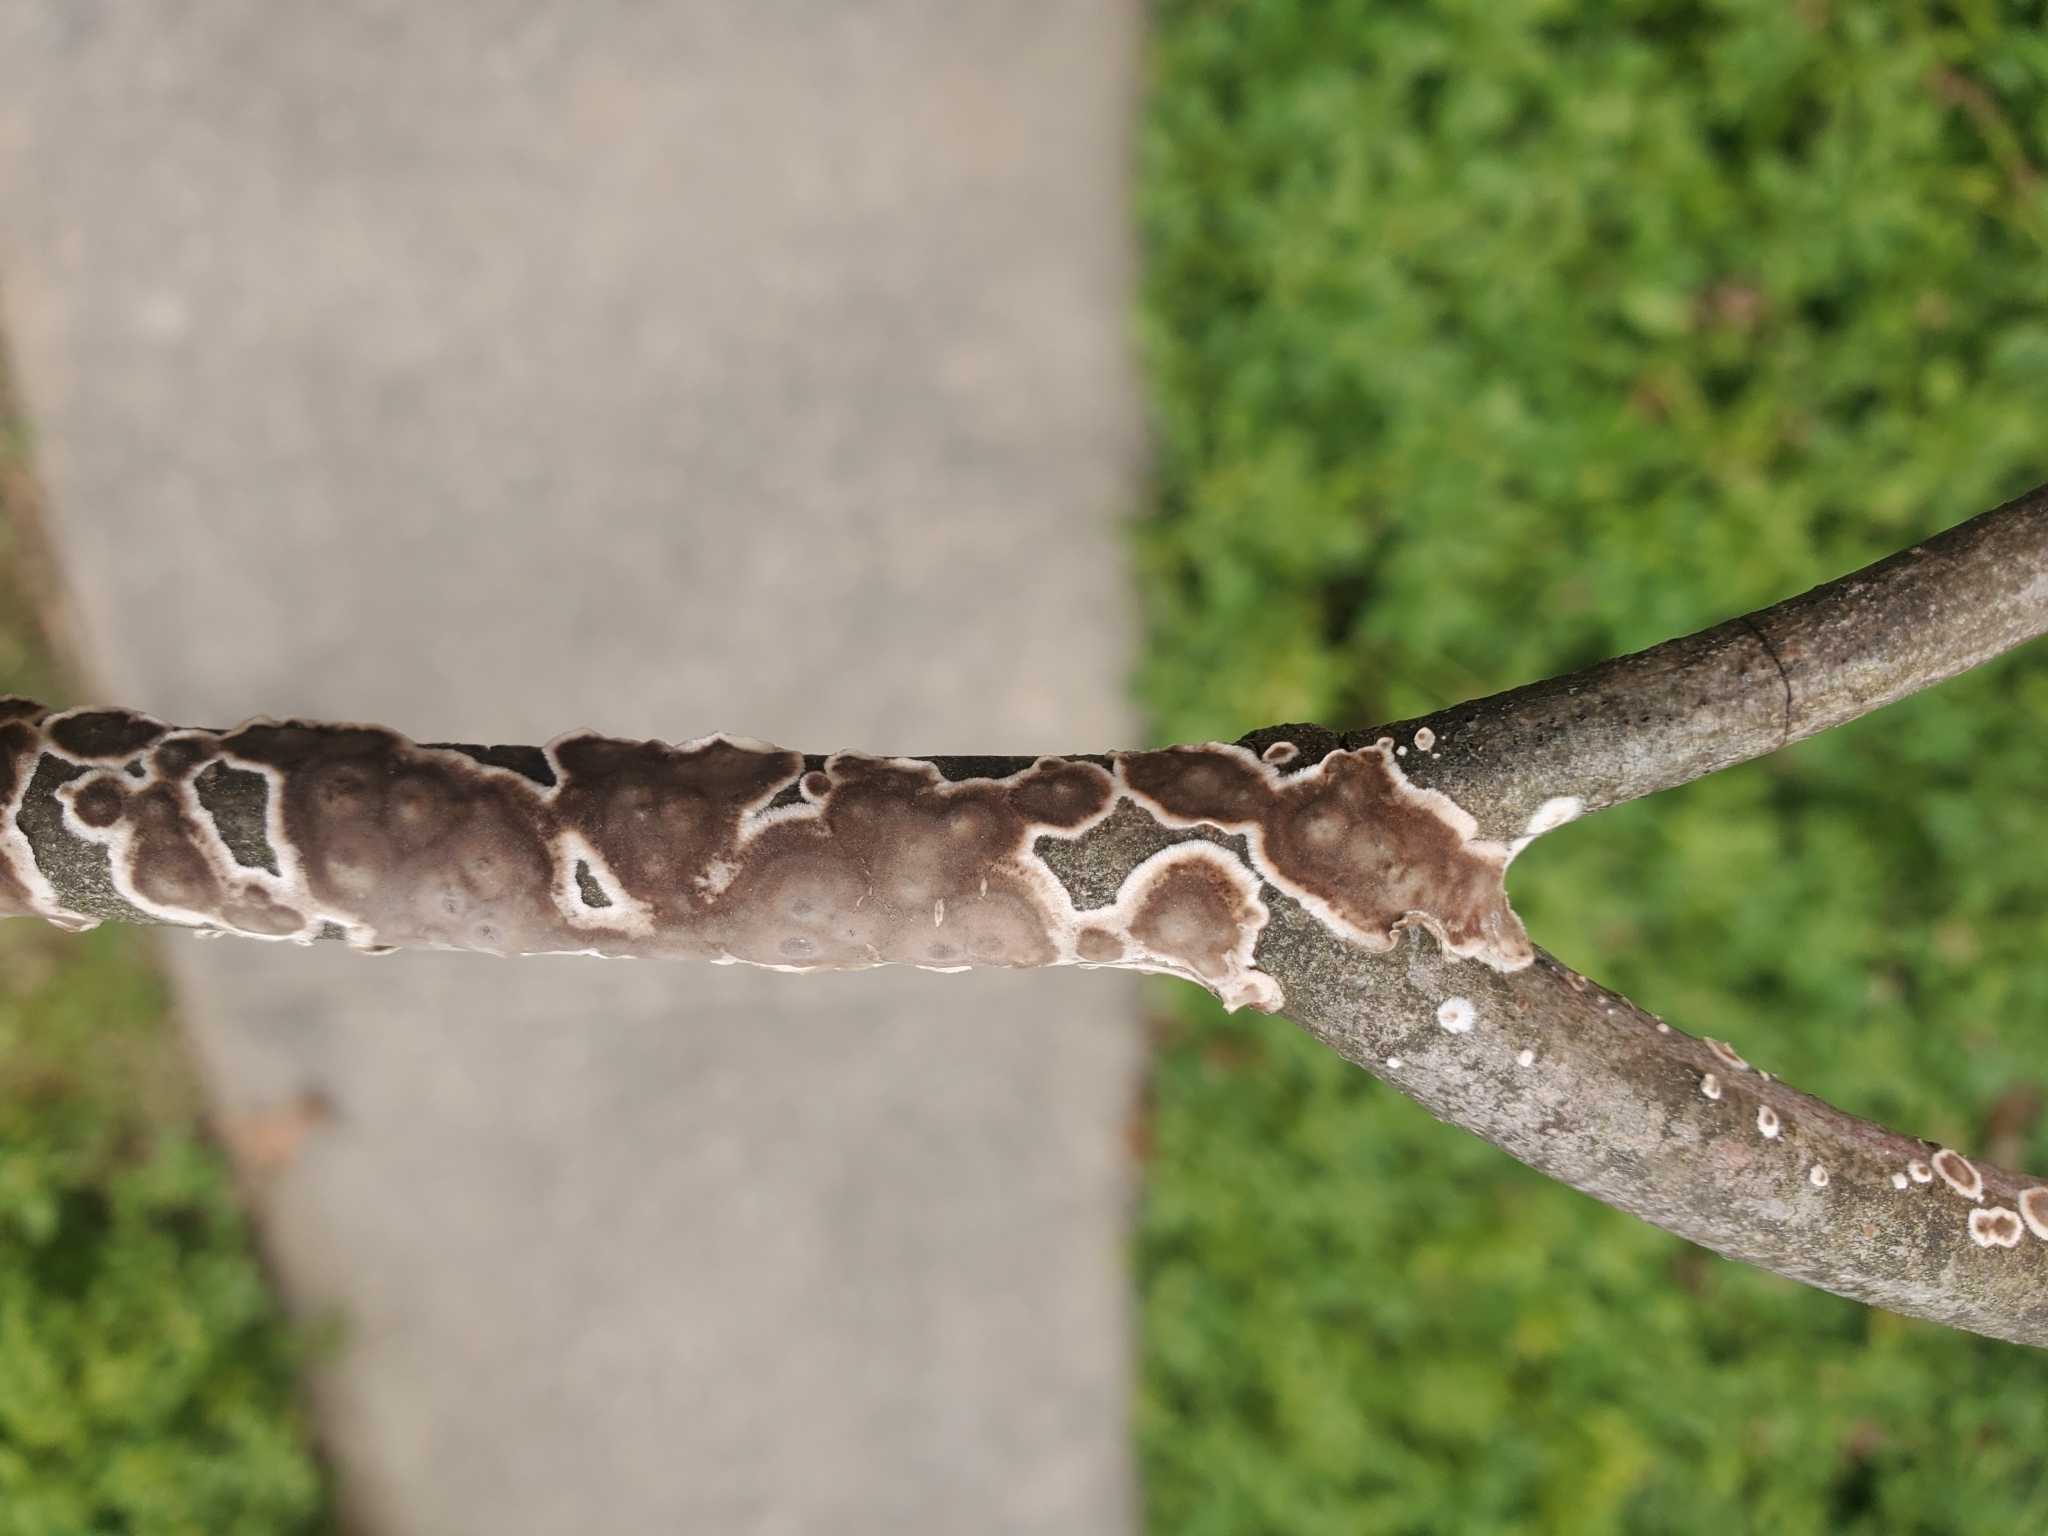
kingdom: Fungi
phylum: Basidiomycota
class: Agaricomycetes
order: Russulales
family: Peniophoraceae
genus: Peniophora
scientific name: Peniophora albobadia
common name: Giraffe spots
